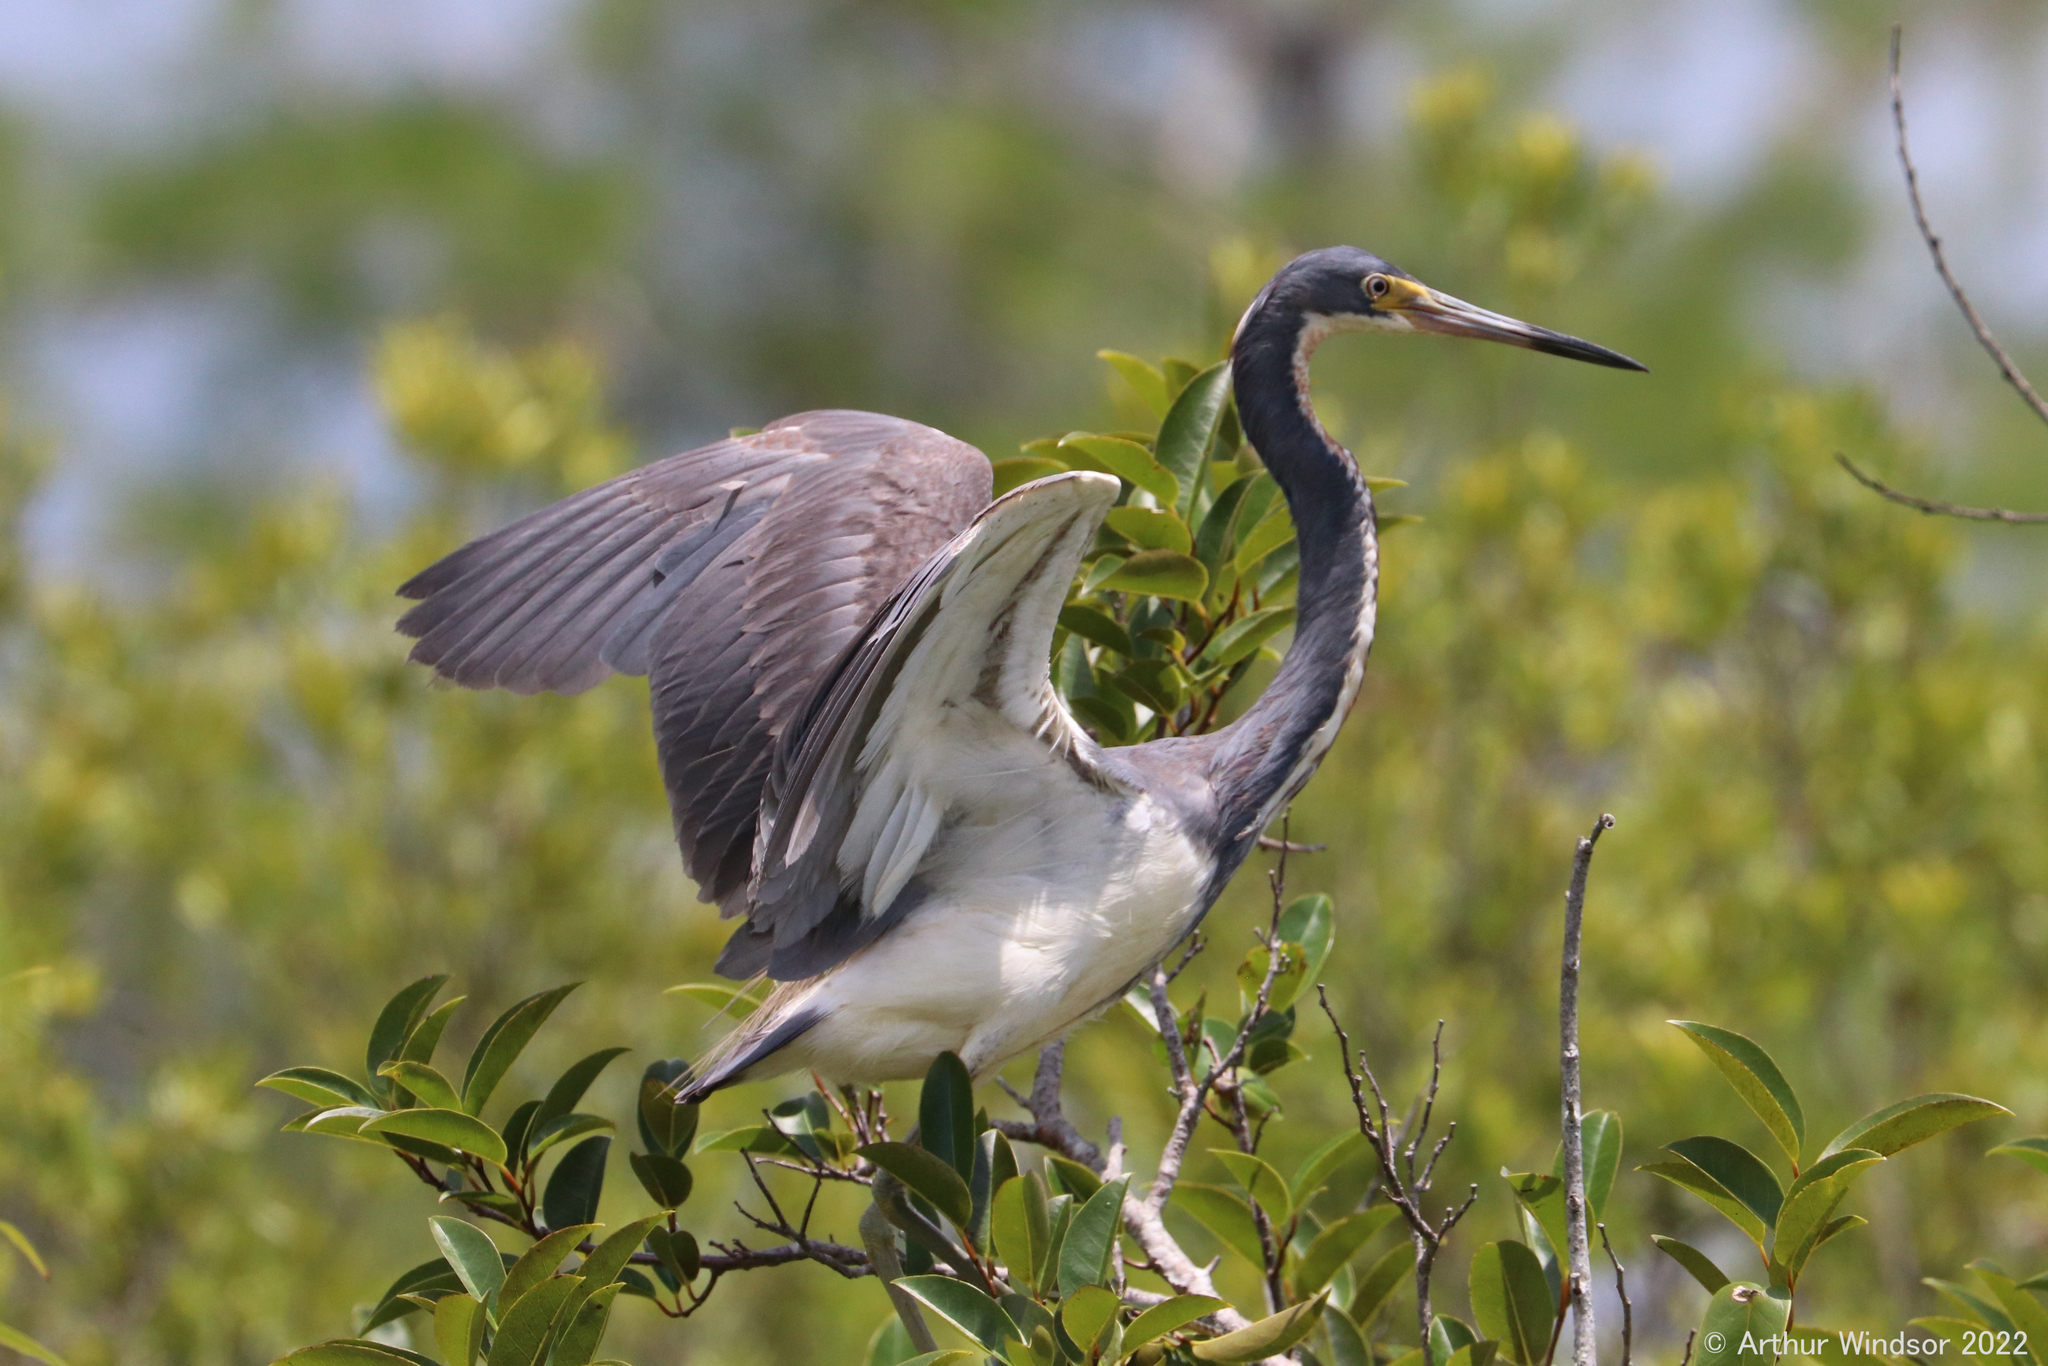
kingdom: Animalia
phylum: Chordata
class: Aves
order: Pelecaniformes
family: Ardeidae
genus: Egretta
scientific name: Egretta tricolor
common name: Tricolored heron
